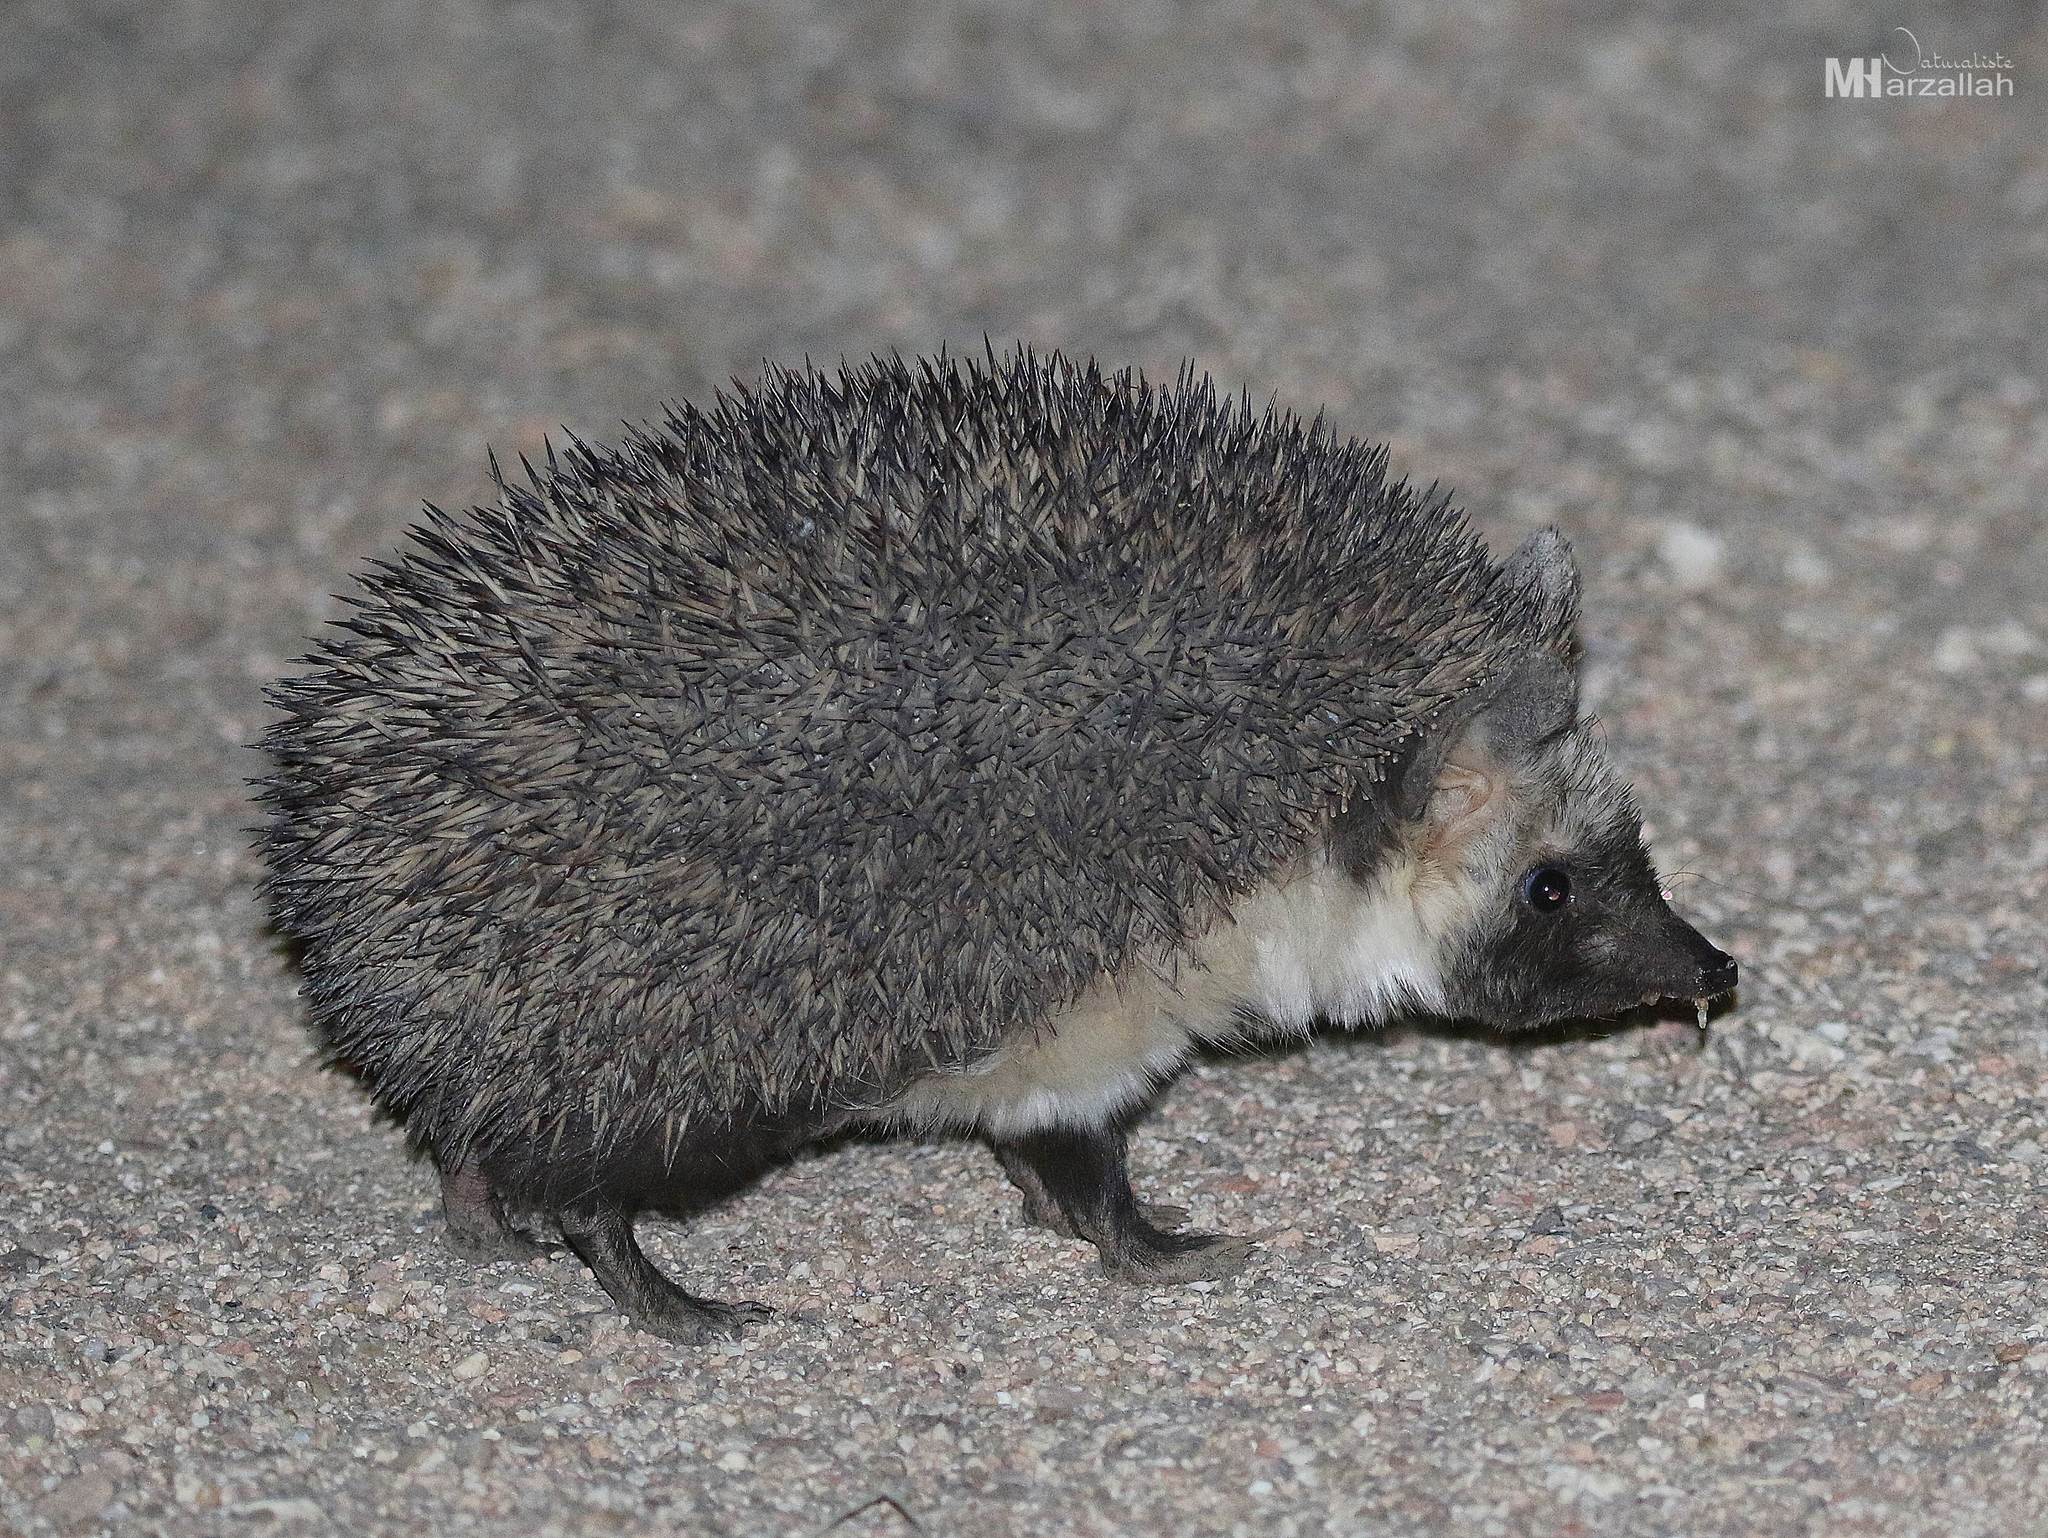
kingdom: Animalia
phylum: Chordata
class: Mammalia
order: Erinaceomorpha
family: Erinaceidae
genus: Paraechinus
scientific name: Paraechinus aethiopicus
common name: Desert hedgehog
